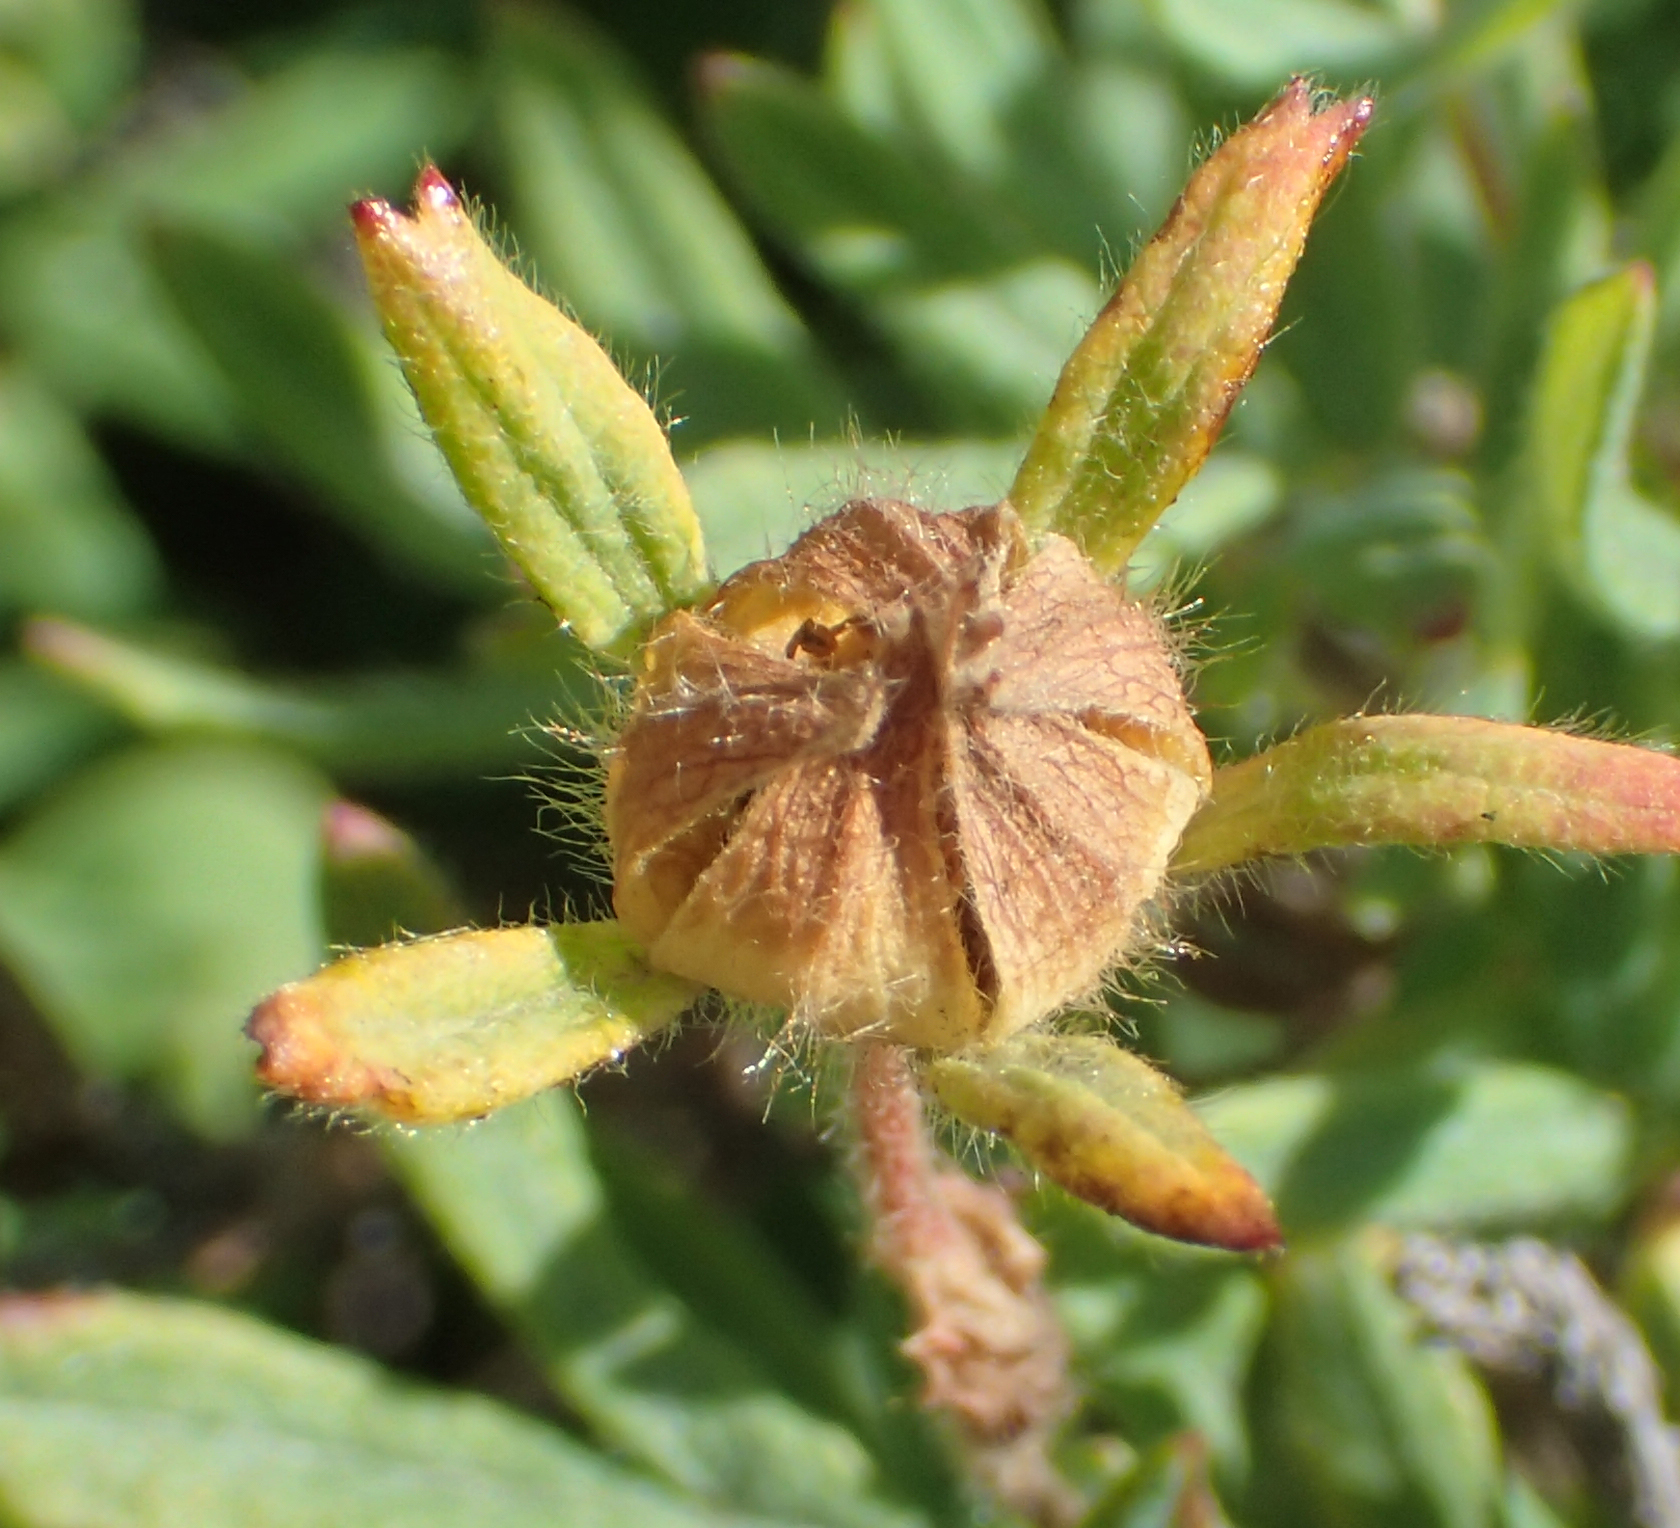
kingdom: Plantae
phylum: Tracheophyta
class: Magnoliopsida
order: Rosales
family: Rosaceae
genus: Dasiphora
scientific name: Dasiphora fruticosa
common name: Shrubby cinquefoil
